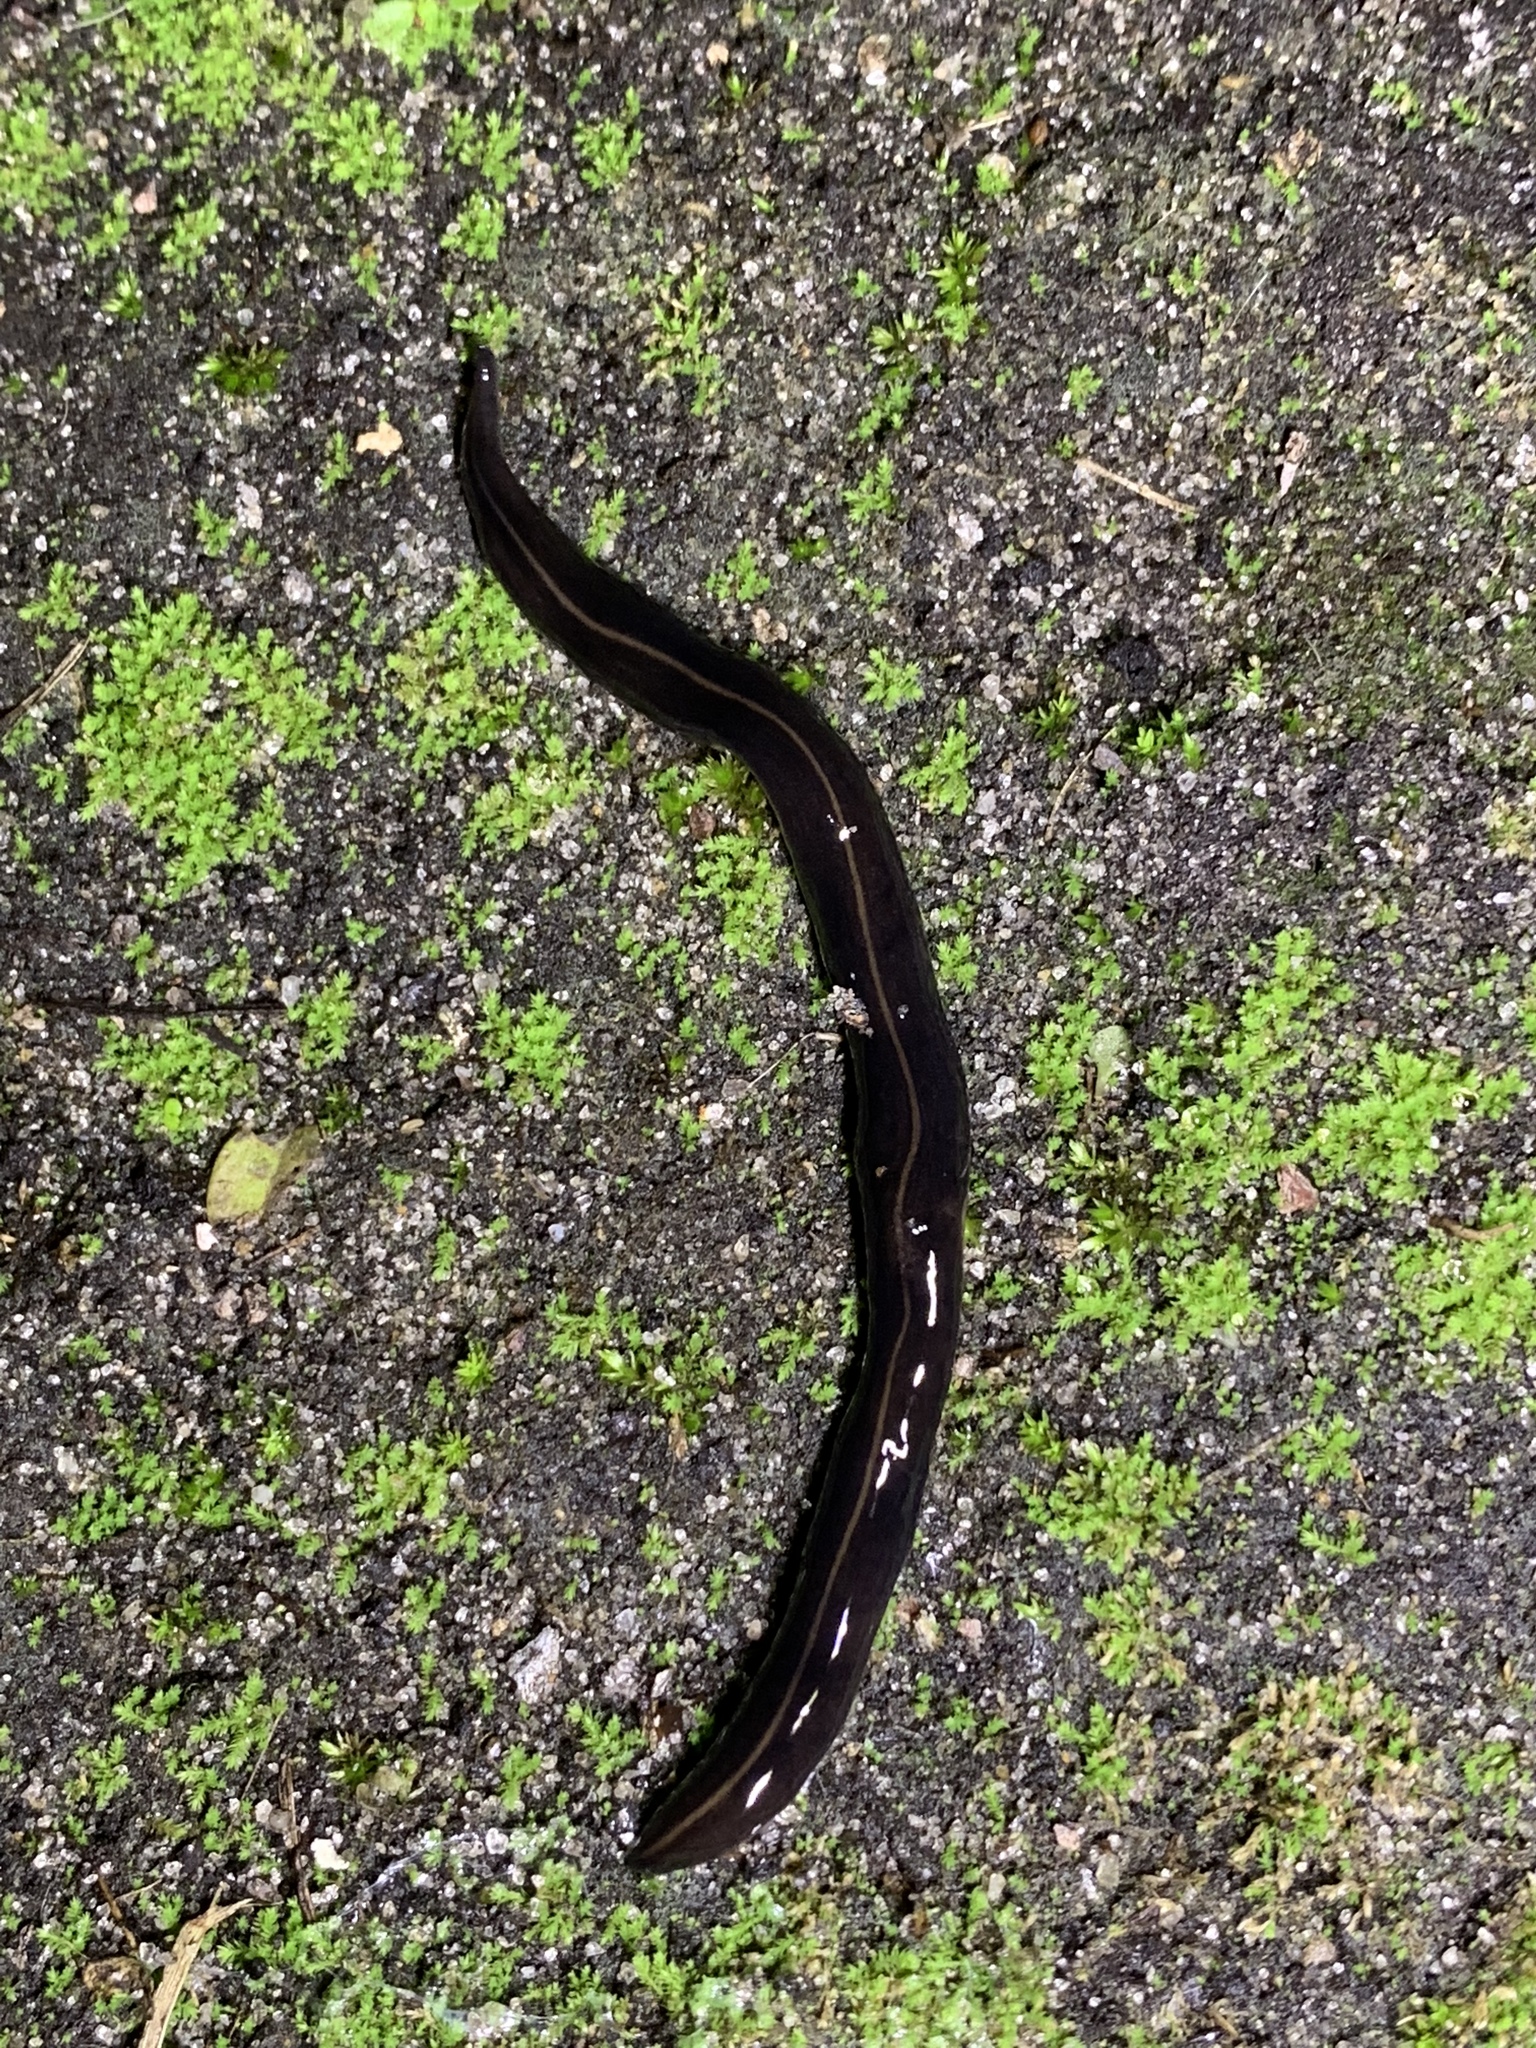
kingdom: Animalia
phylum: Platyhelminthes
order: Tricladida
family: Geoplanidae
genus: Platydemus
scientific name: Platydemus manokwari
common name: New guinea flatworm
